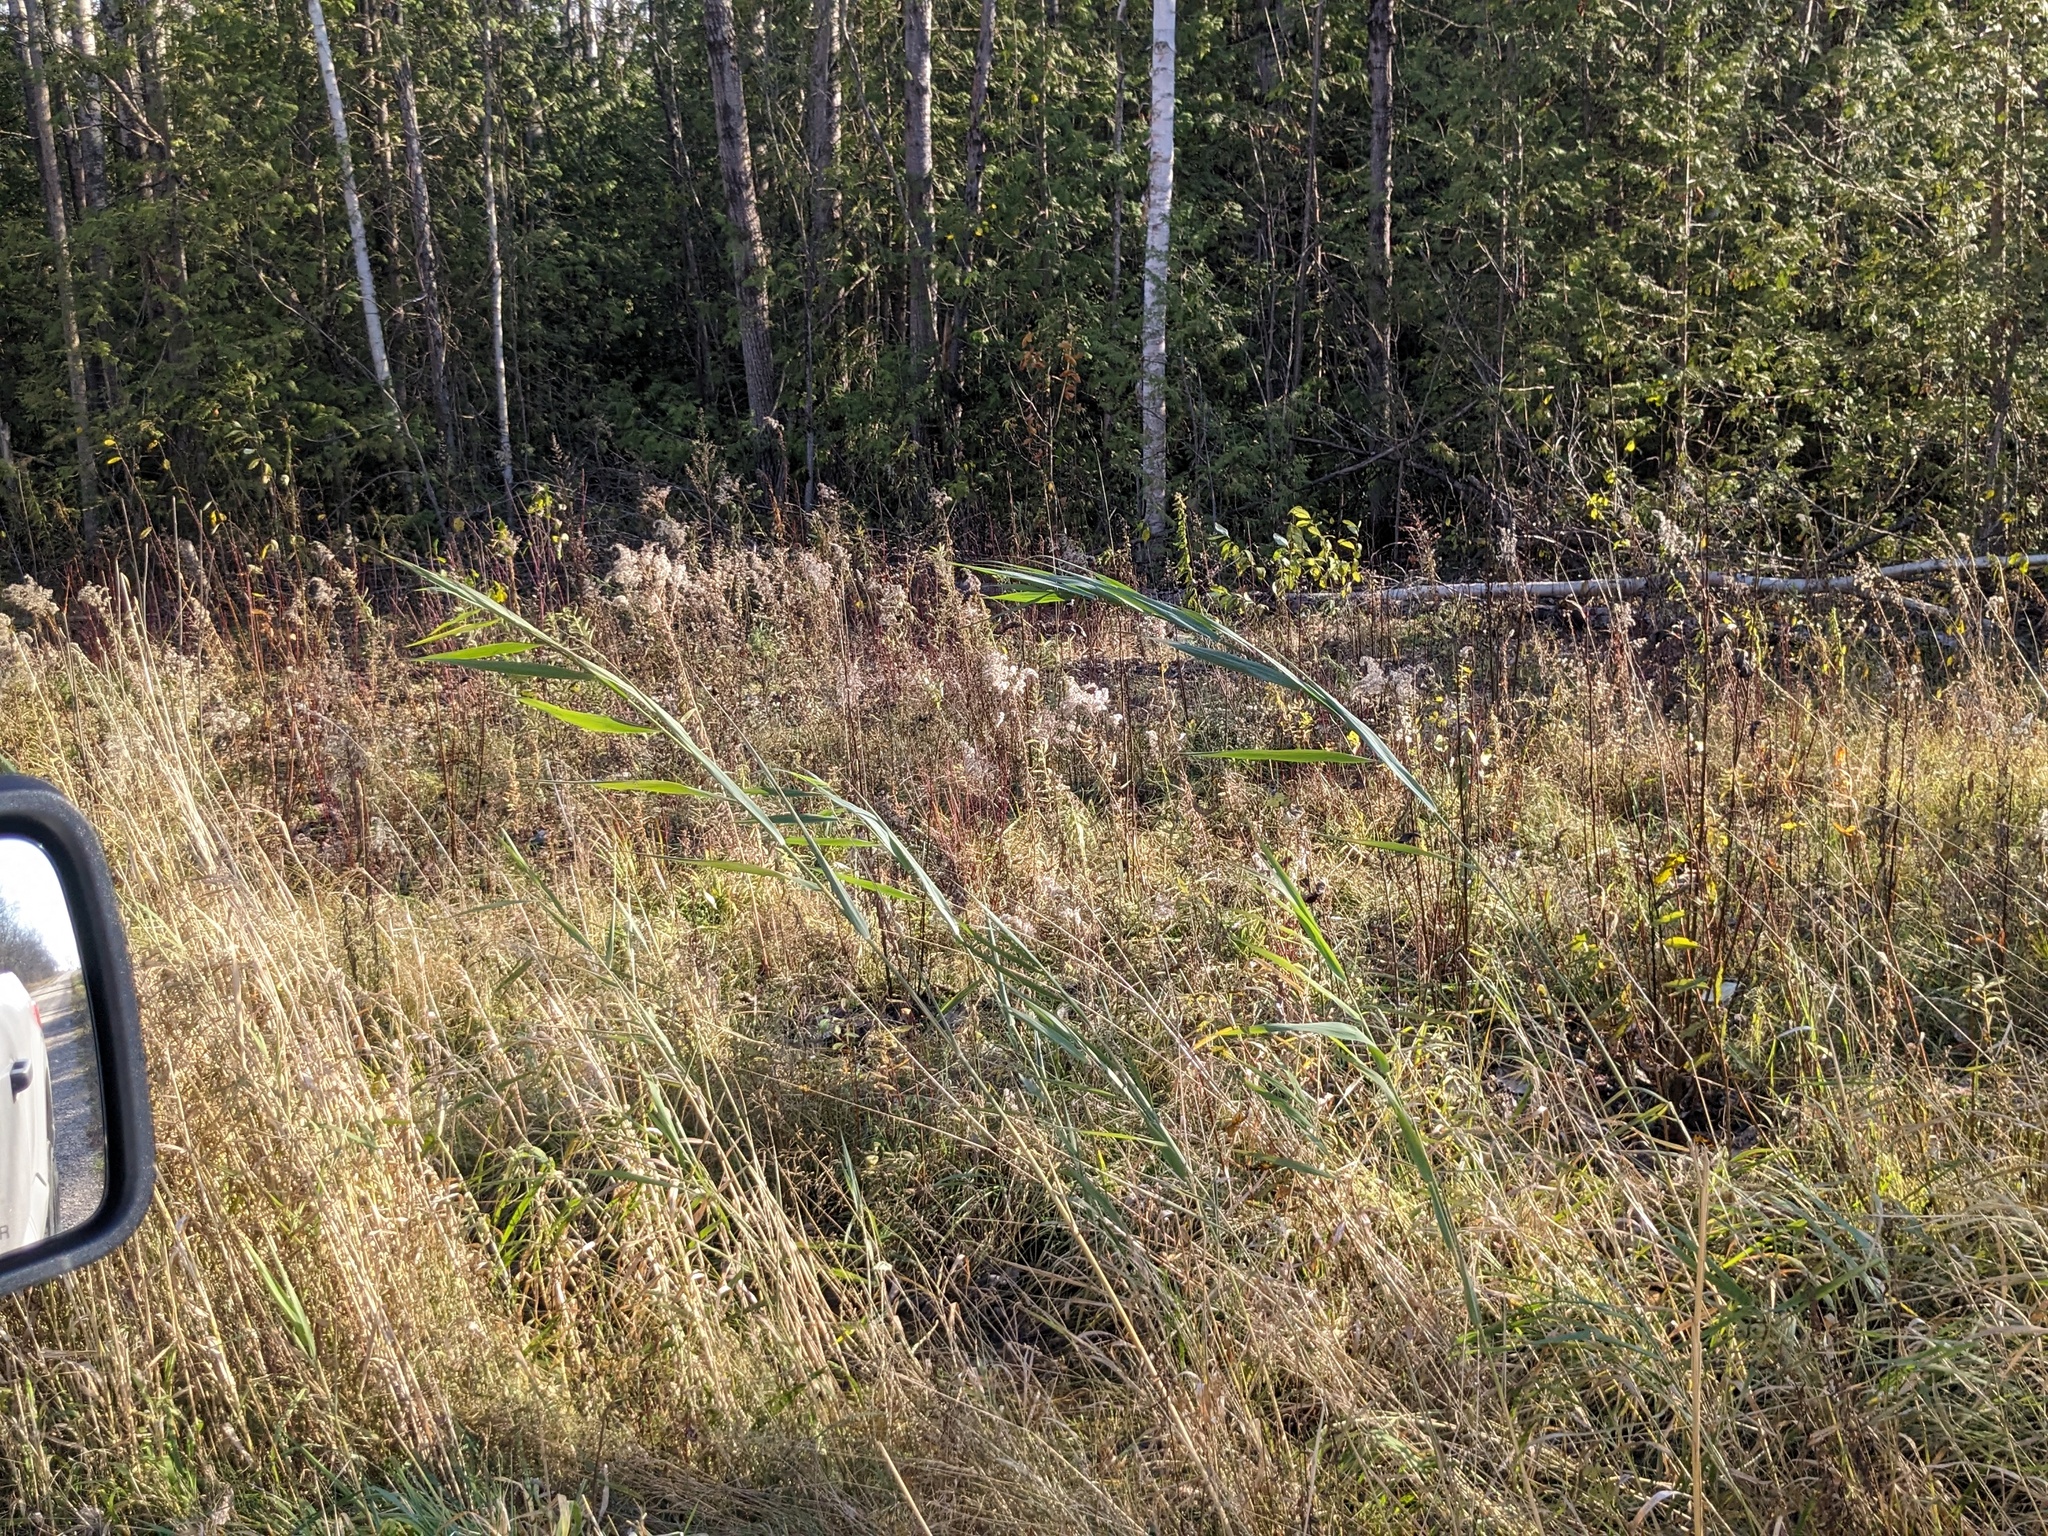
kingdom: Plantae
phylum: Tracheophyta
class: Liliopsida
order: Poales
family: Poaceae
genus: Phragmites
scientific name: Phragmites australis
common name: Common reed
